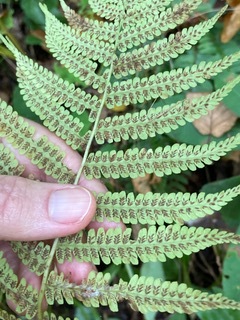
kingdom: Plantae
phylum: Tracheophyta
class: Polypodiopsida
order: Polypodiales
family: Athyriaceae
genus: Deparia
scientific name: Deparia acrostichoides
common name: Silver false spleenwort
